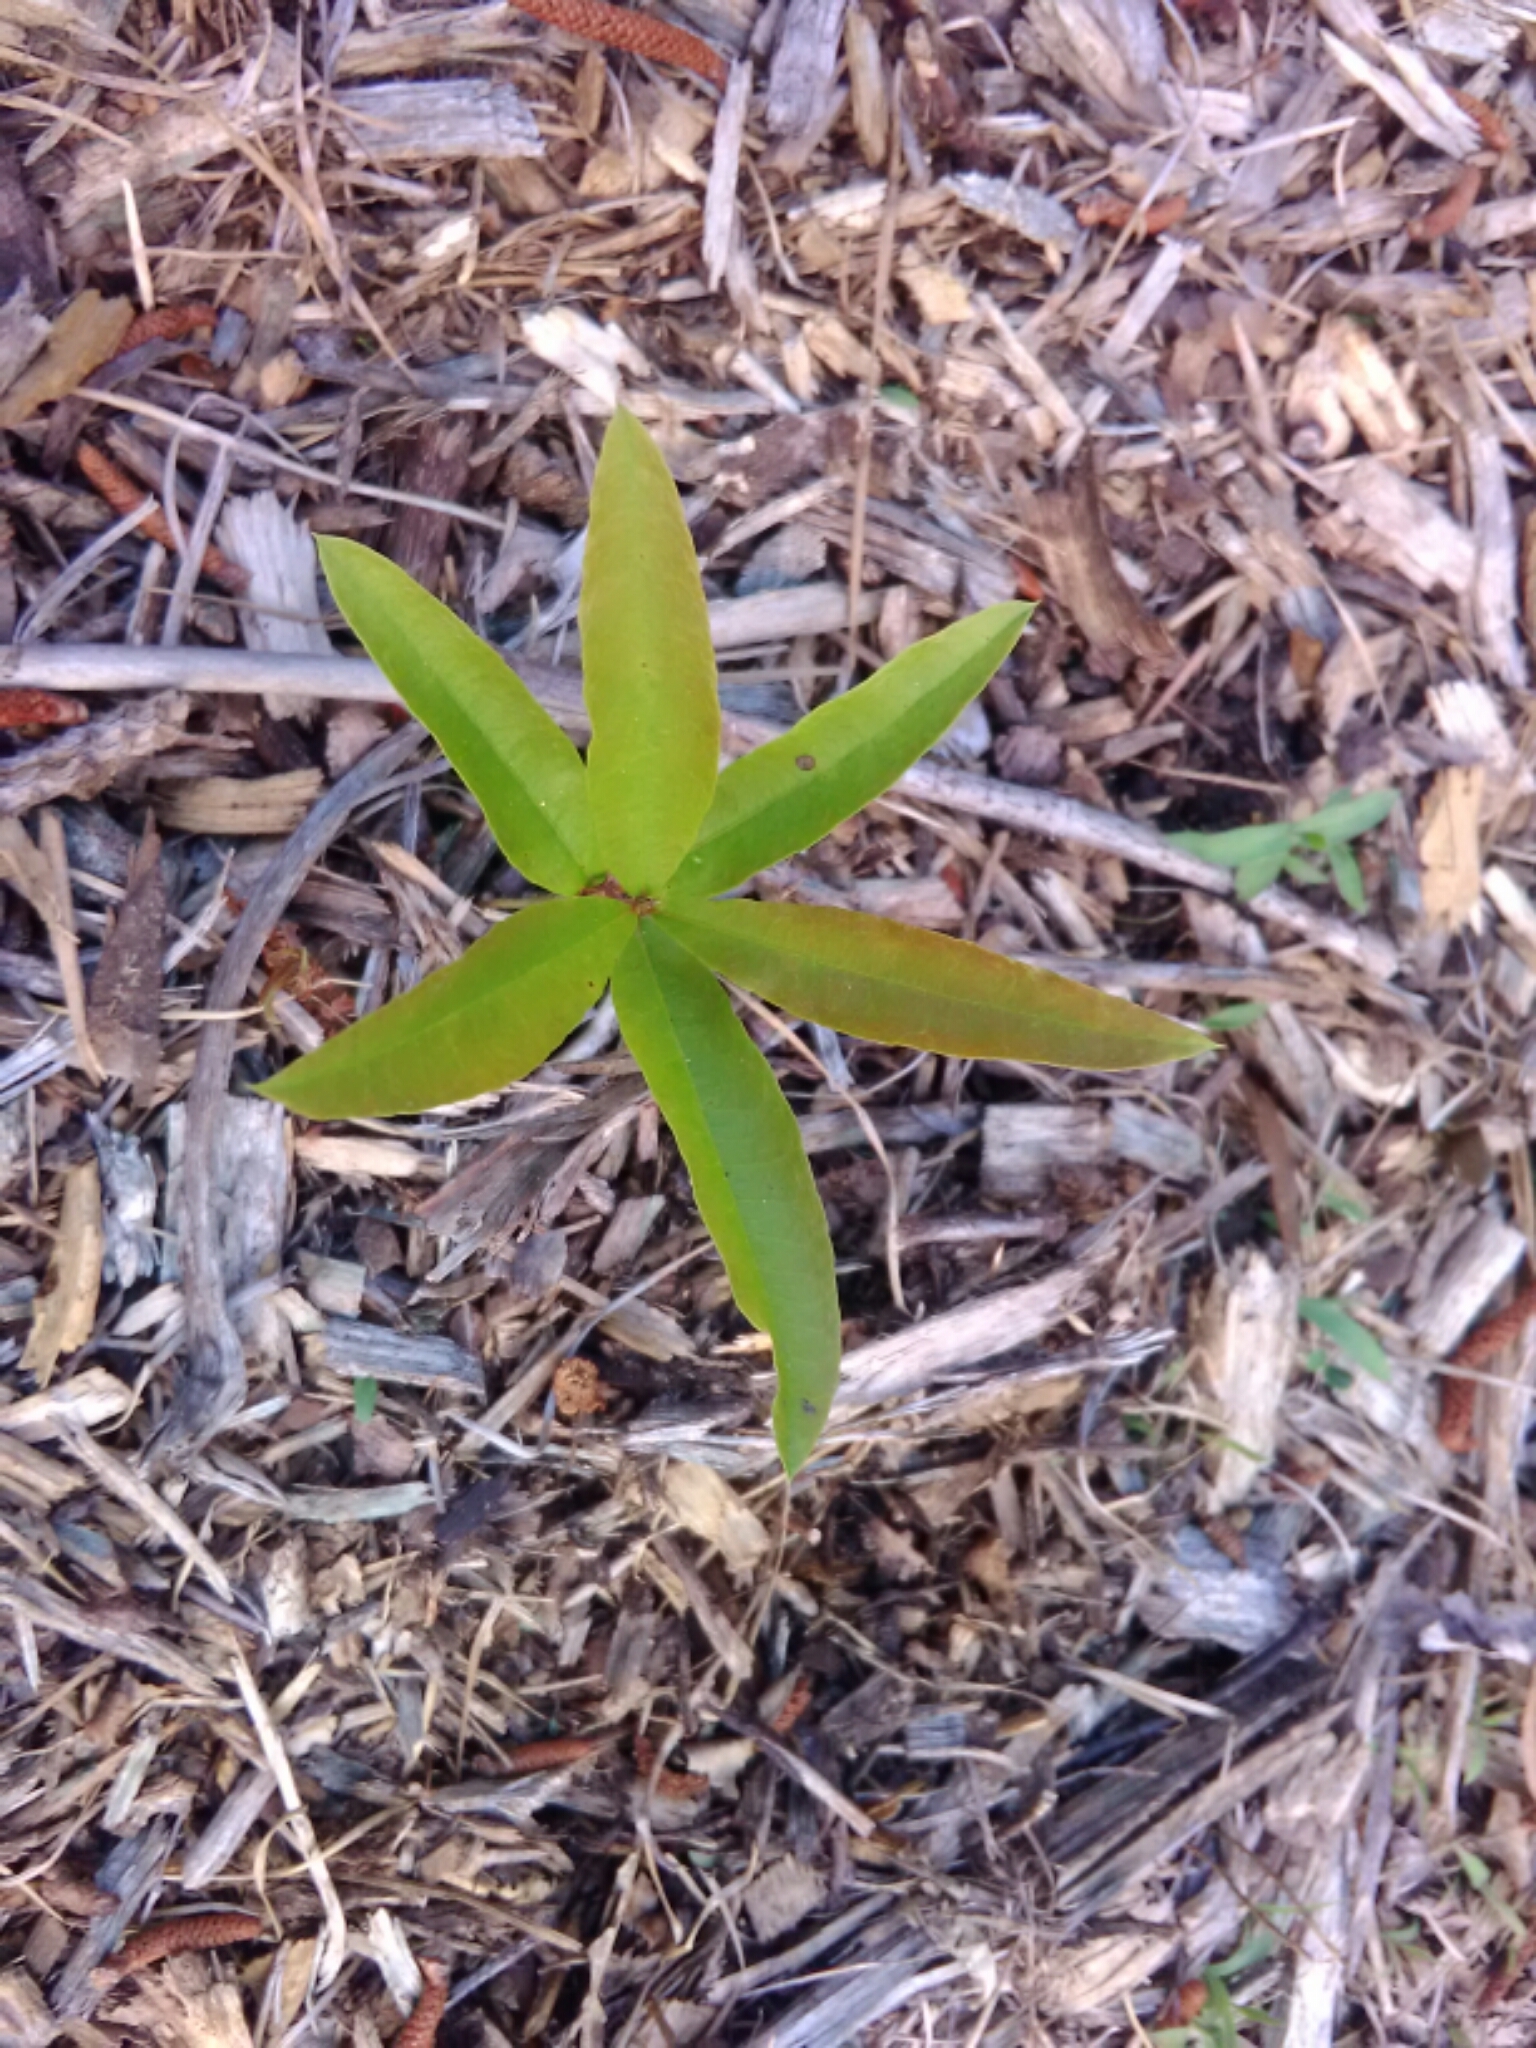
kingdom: Plantae
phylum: Tracheophyta
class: Magnoliopsida
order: Fagales
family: Fagaceae
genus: Quercus
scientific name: Quercus phellos
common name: Willow oak
